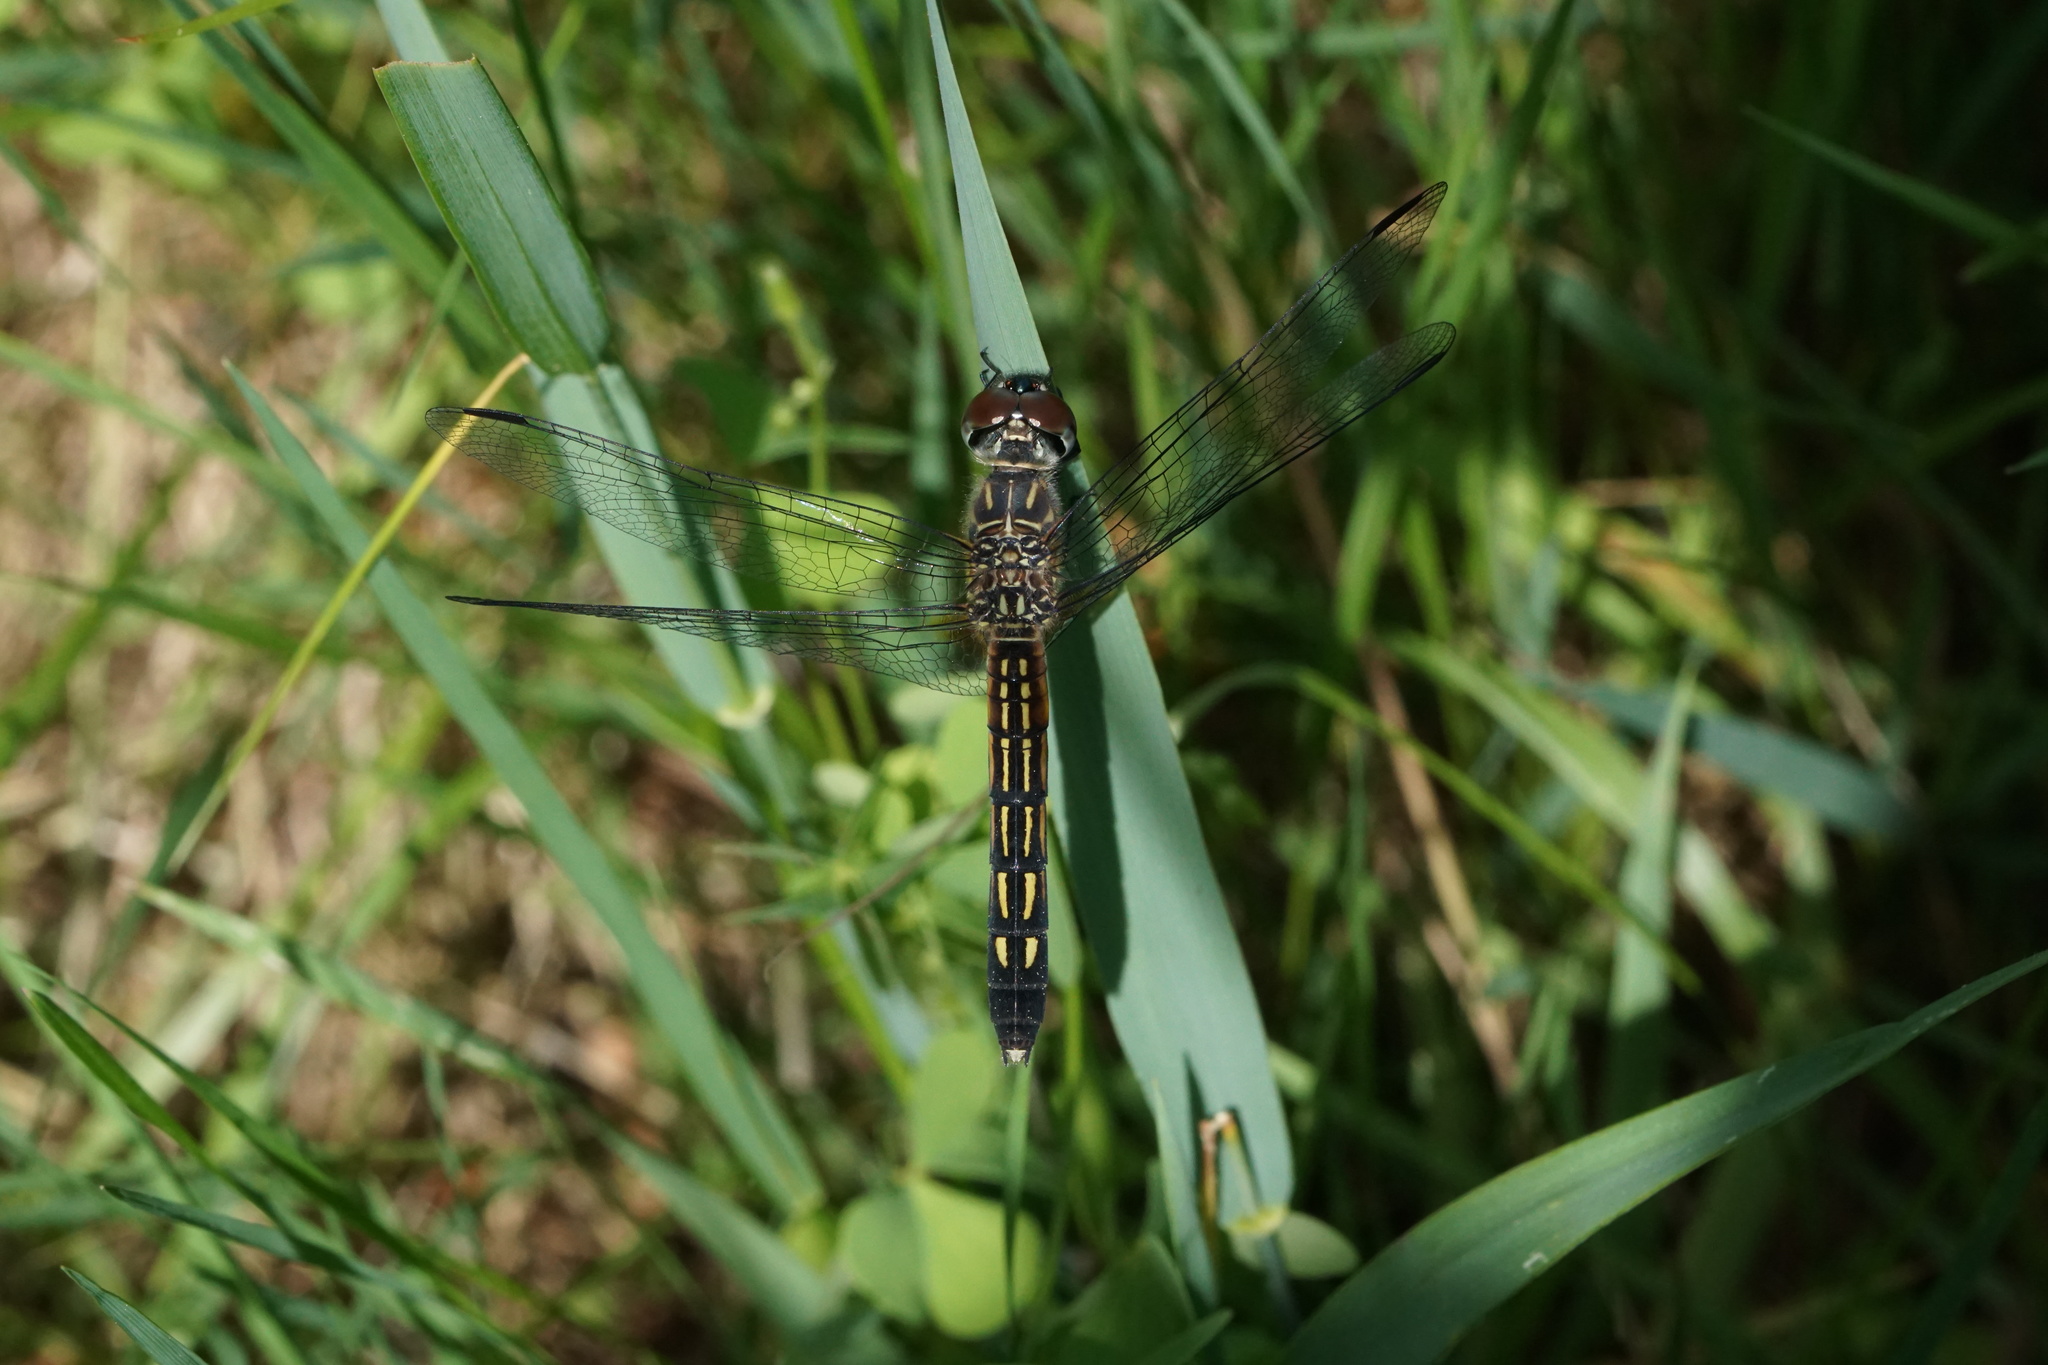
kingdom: Animalia
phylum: Arthropoda
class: Insecta
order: Odonata
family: Libellulidae
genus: Pachydiplax
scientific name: Pachydiplax longipennis
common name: Blue dasher
